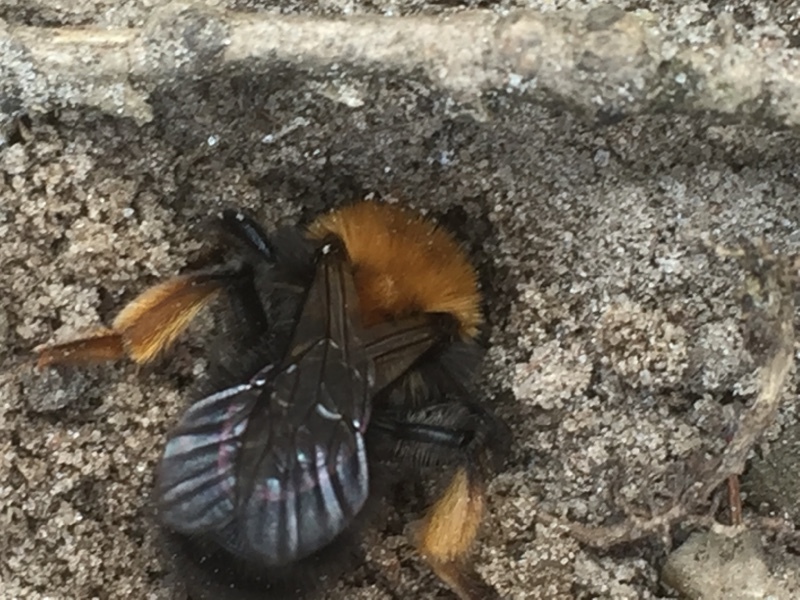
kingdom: Animalia
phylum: Arthropoda
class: Insecta
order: Hymenoptera
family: Andrenidae
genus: Andrena
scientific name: Andrena clarkella
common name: Clarke's mining bee
